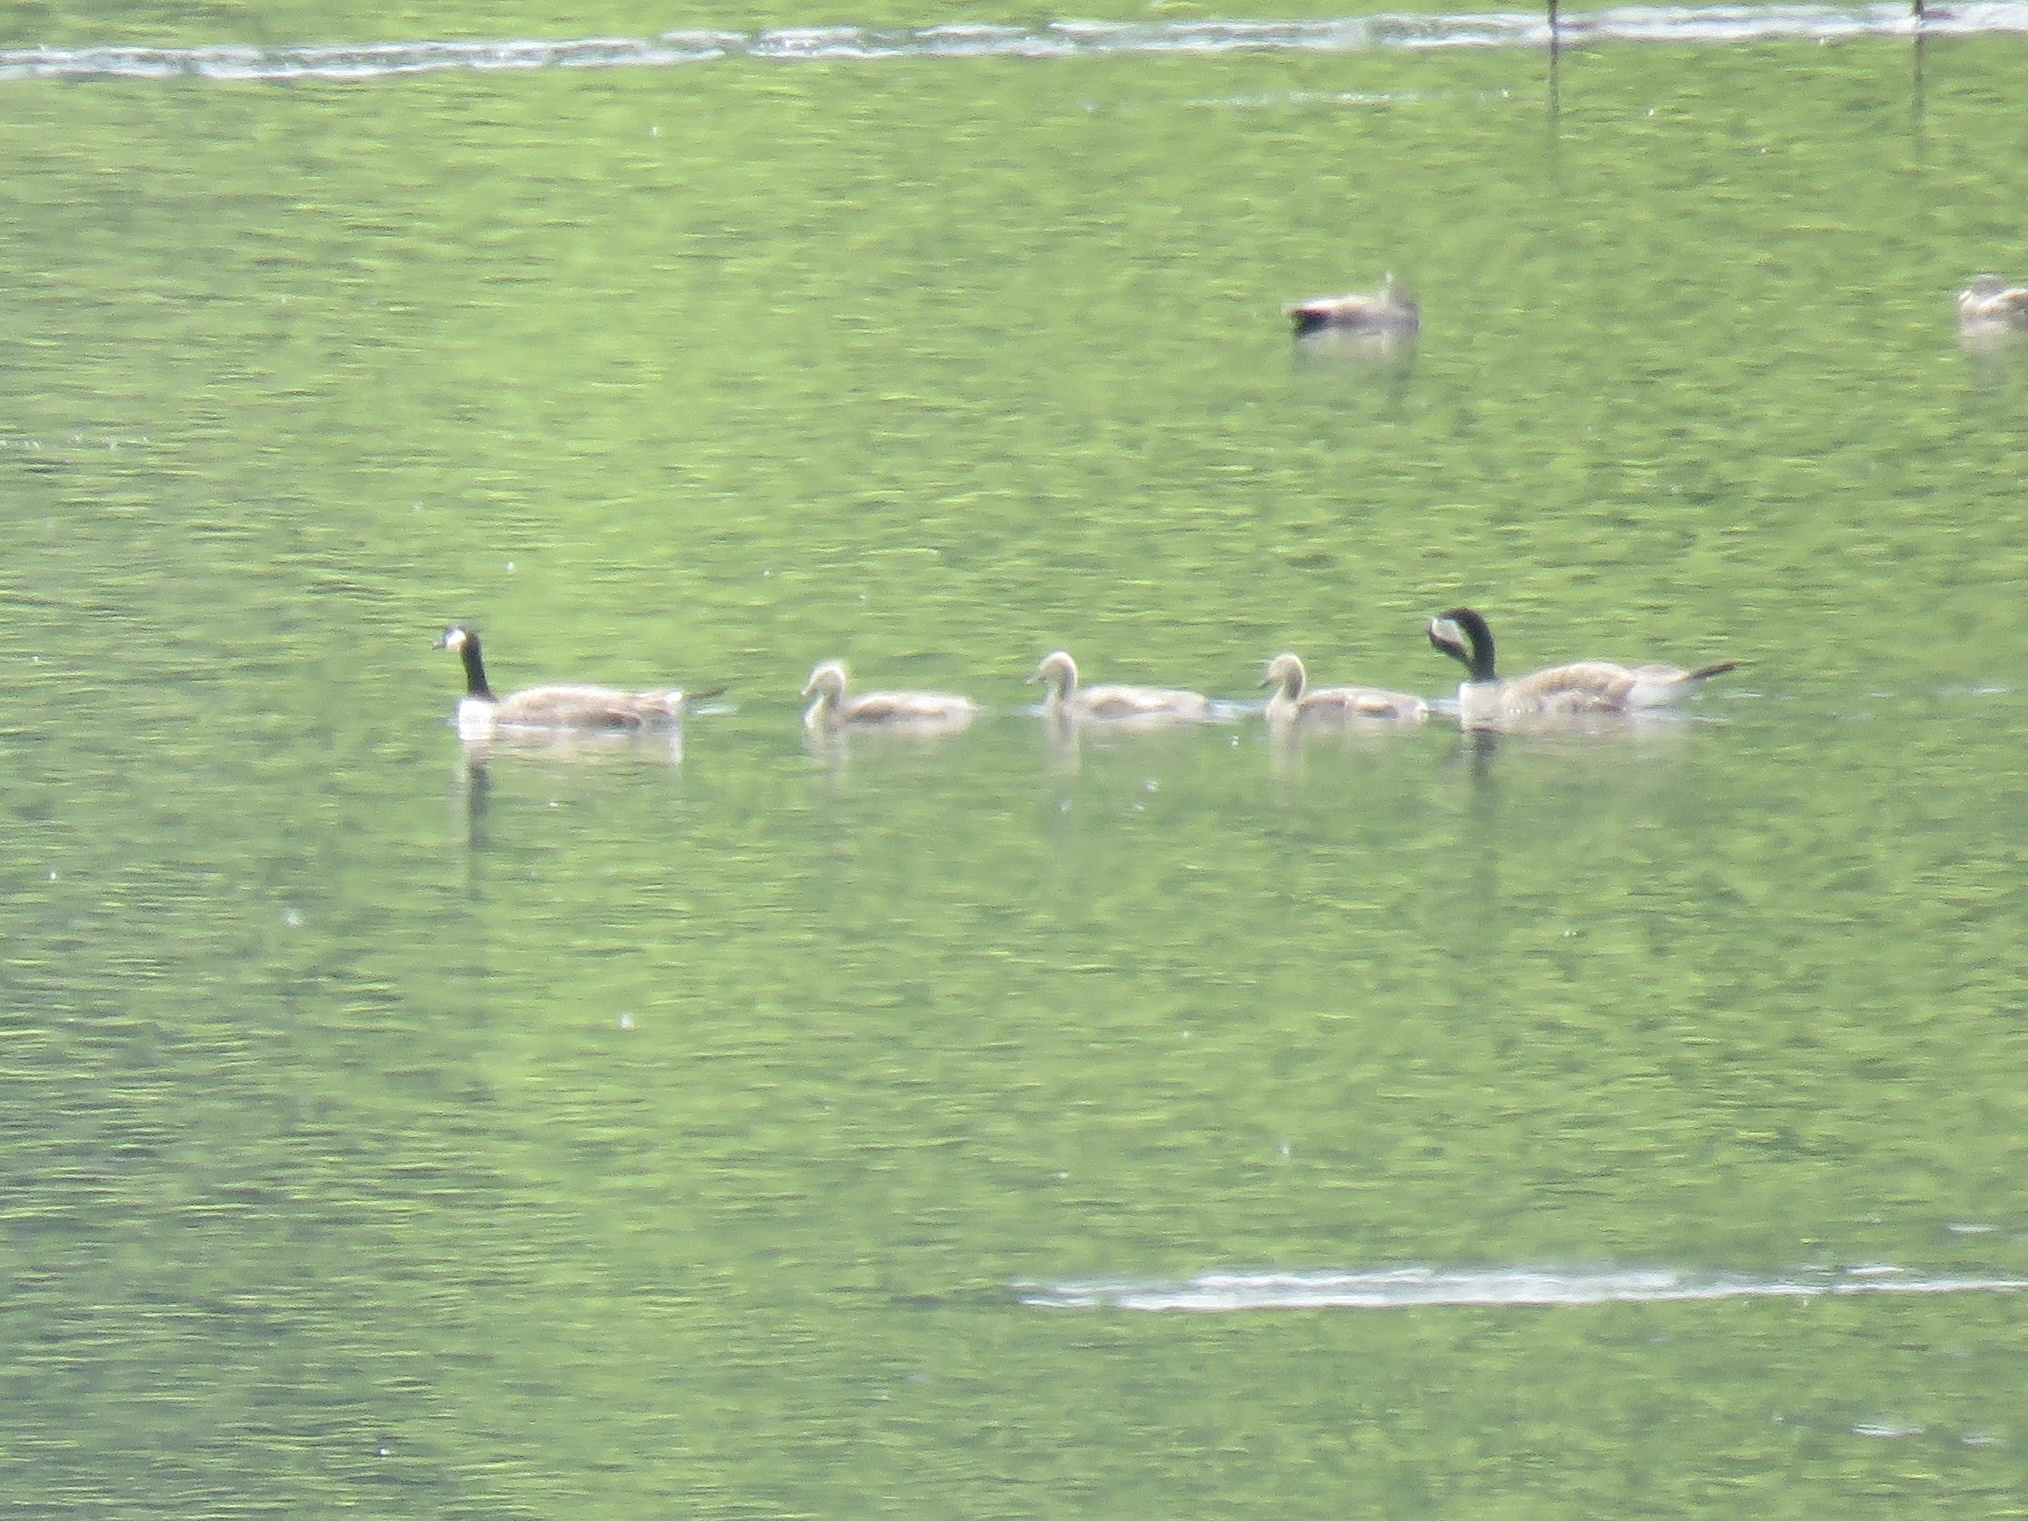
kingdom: Animalia
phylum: Chordata
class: Aves
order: Anseriformes
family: Anatidae
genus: Branta
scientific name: Branta canadensis
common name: Canada goose
